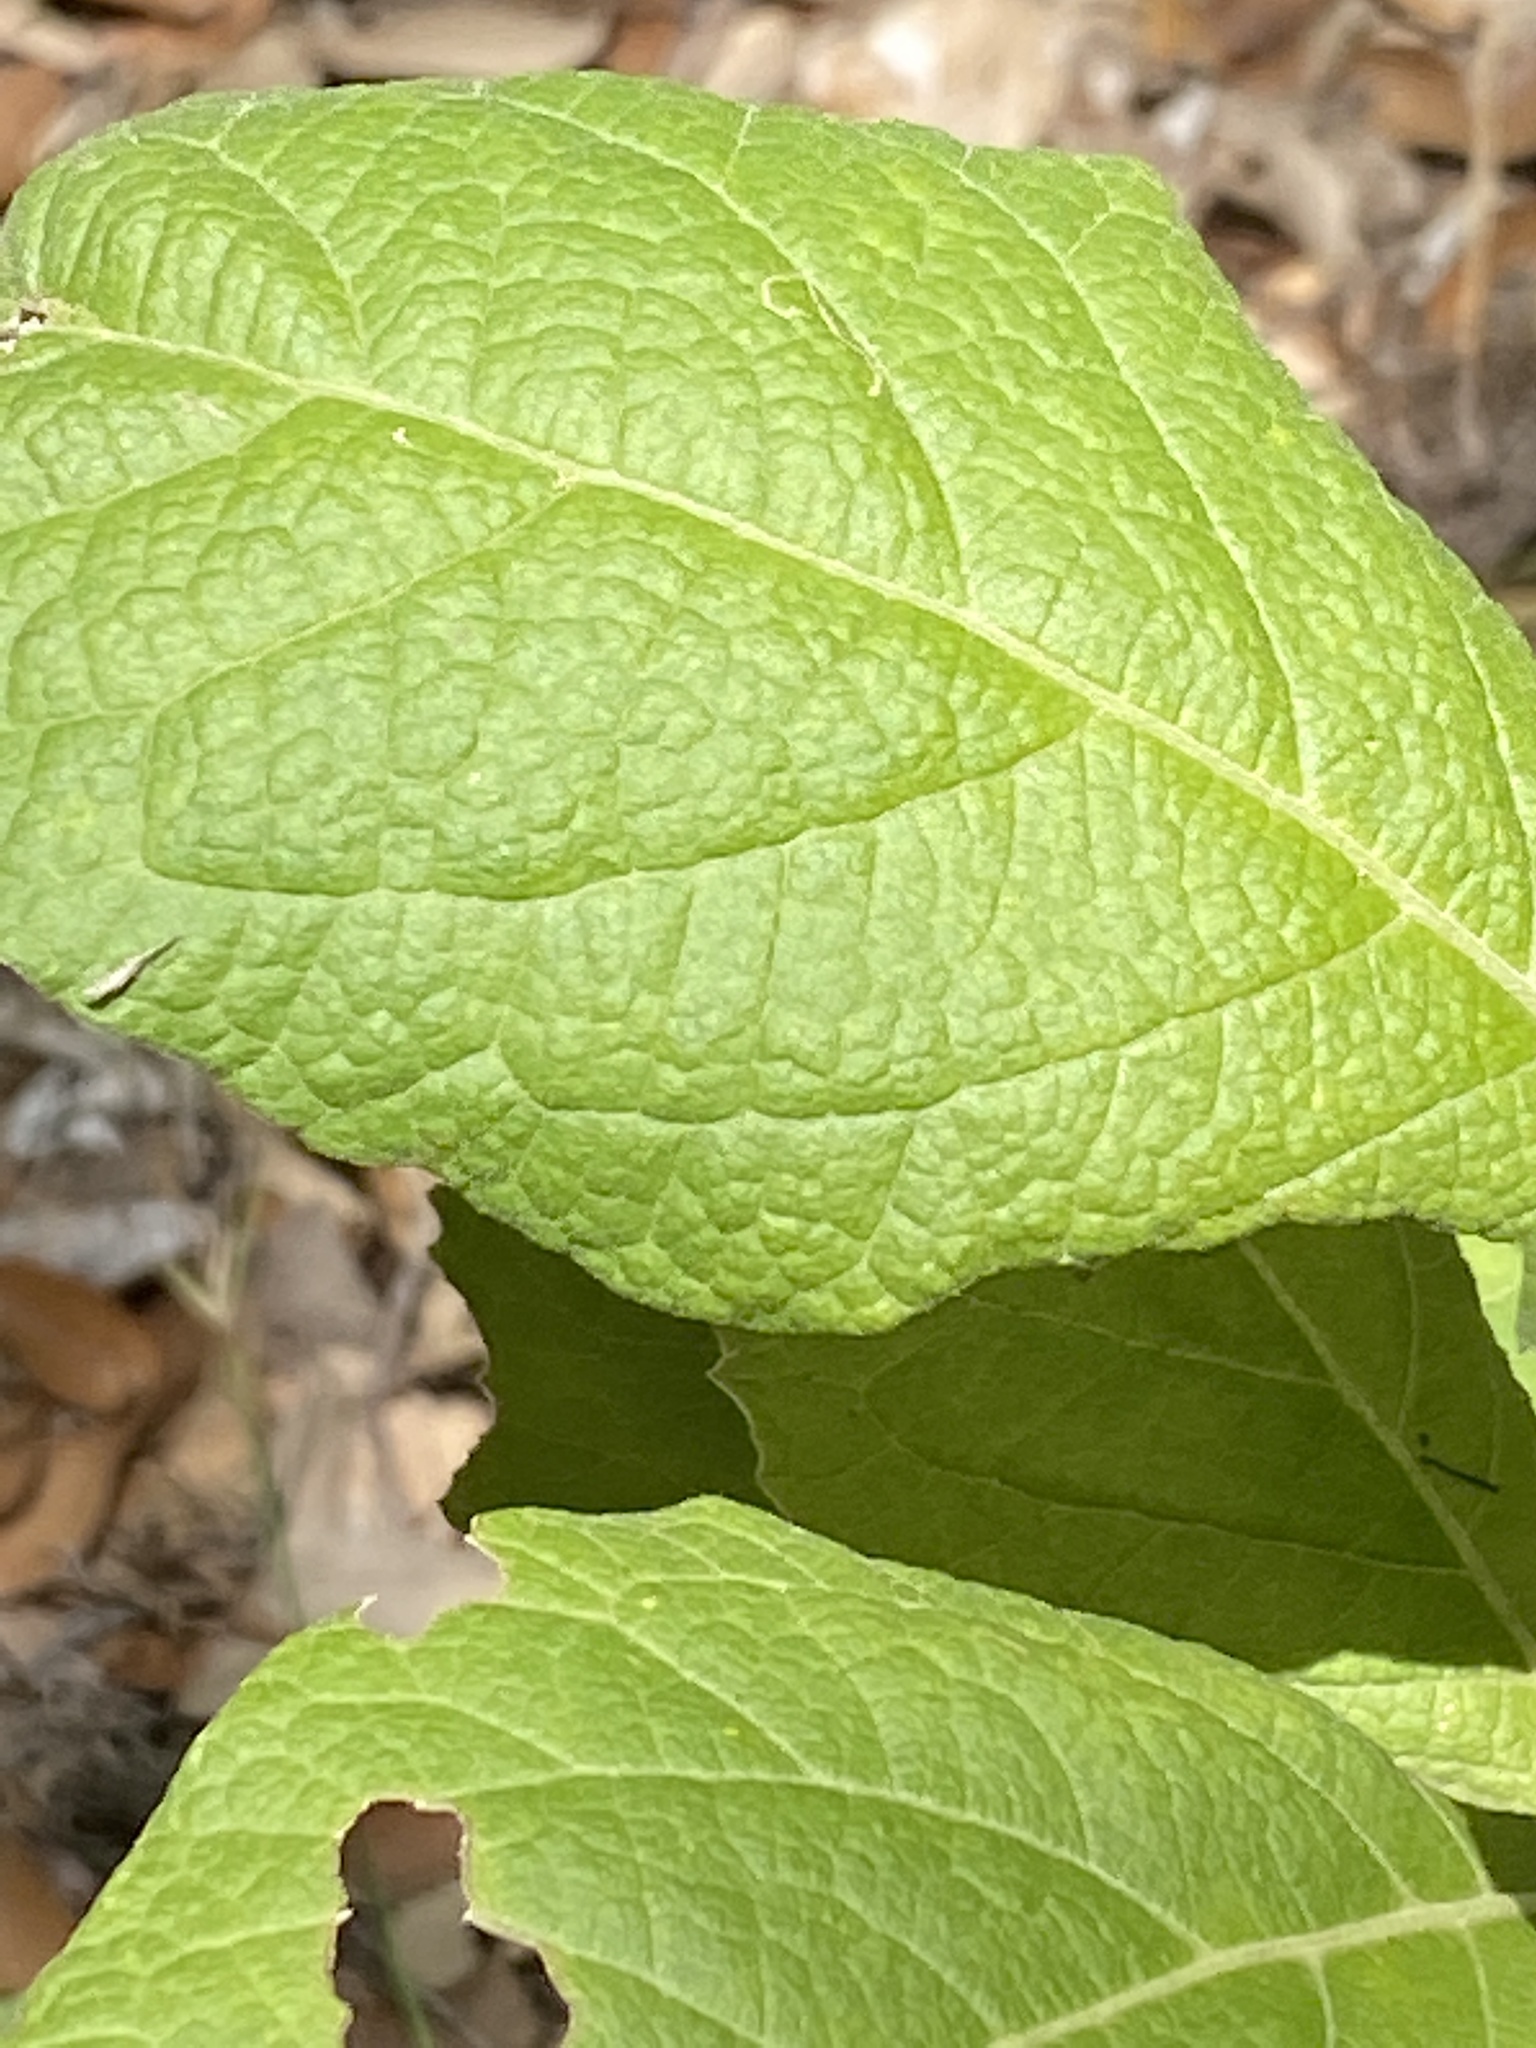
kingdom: Plantae
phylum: Tracheophyta
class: Magnoliopsida
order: Asterales
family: Asteraceae
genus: Verbesina
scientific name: Verbesina virginica
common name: Frostweed
